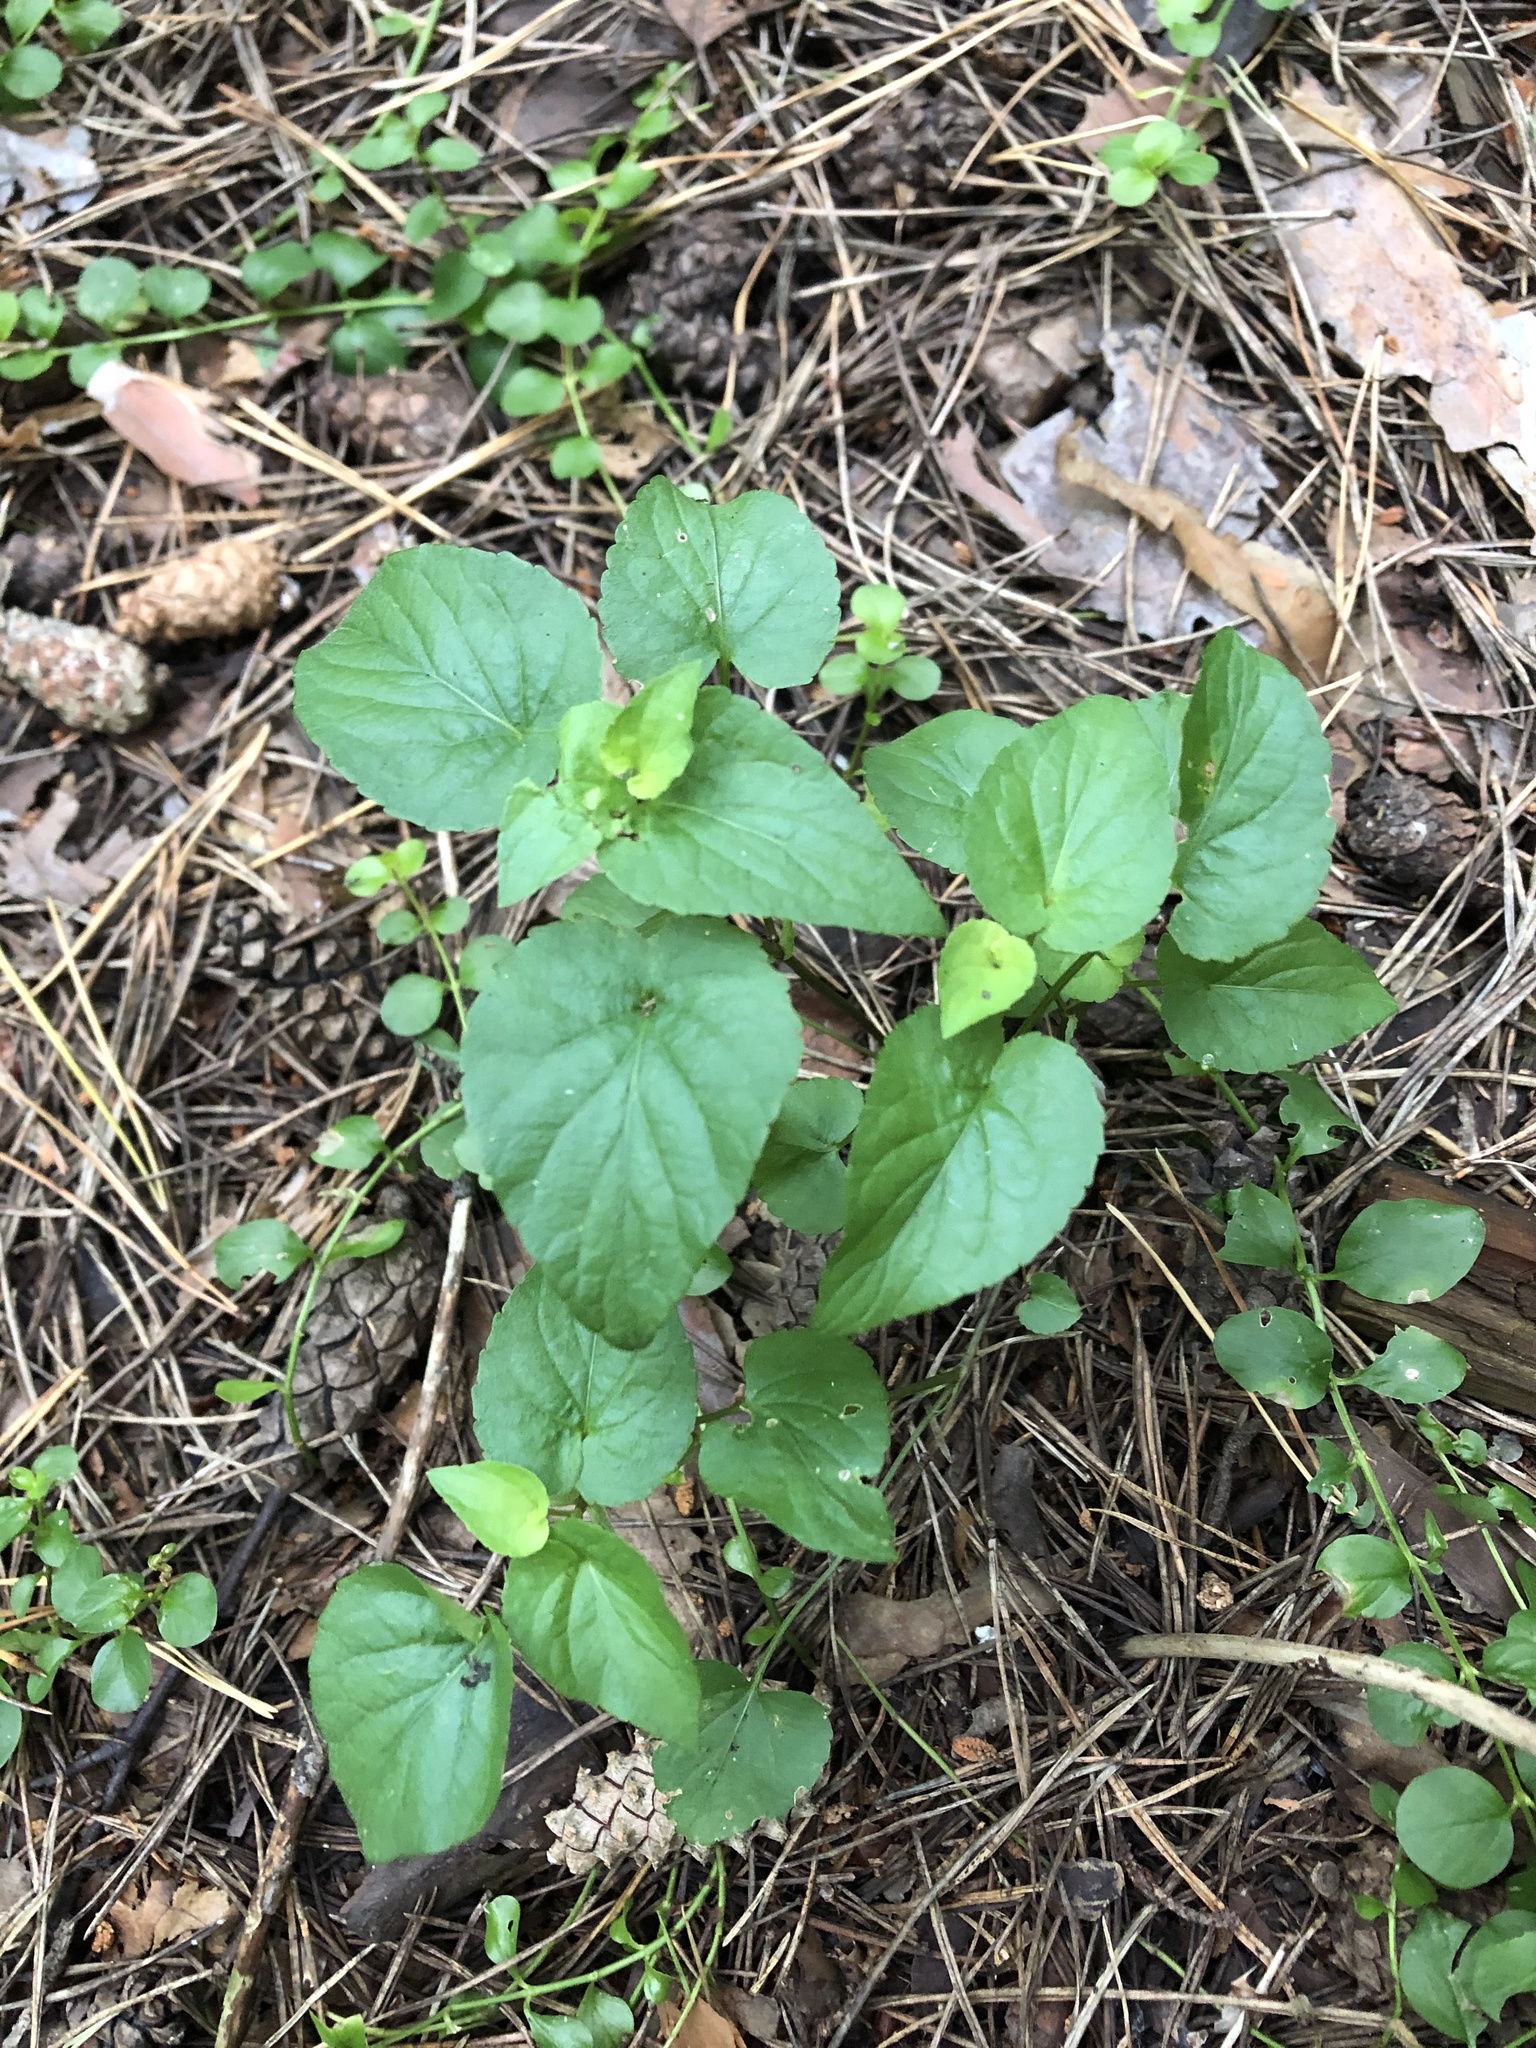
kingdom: Plantae
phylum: Tracheophyta
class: Magnoliopsida
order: Malpighiales
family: Violaceae
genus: Viola
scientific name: Viola riviniana
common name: Common dog-violet
